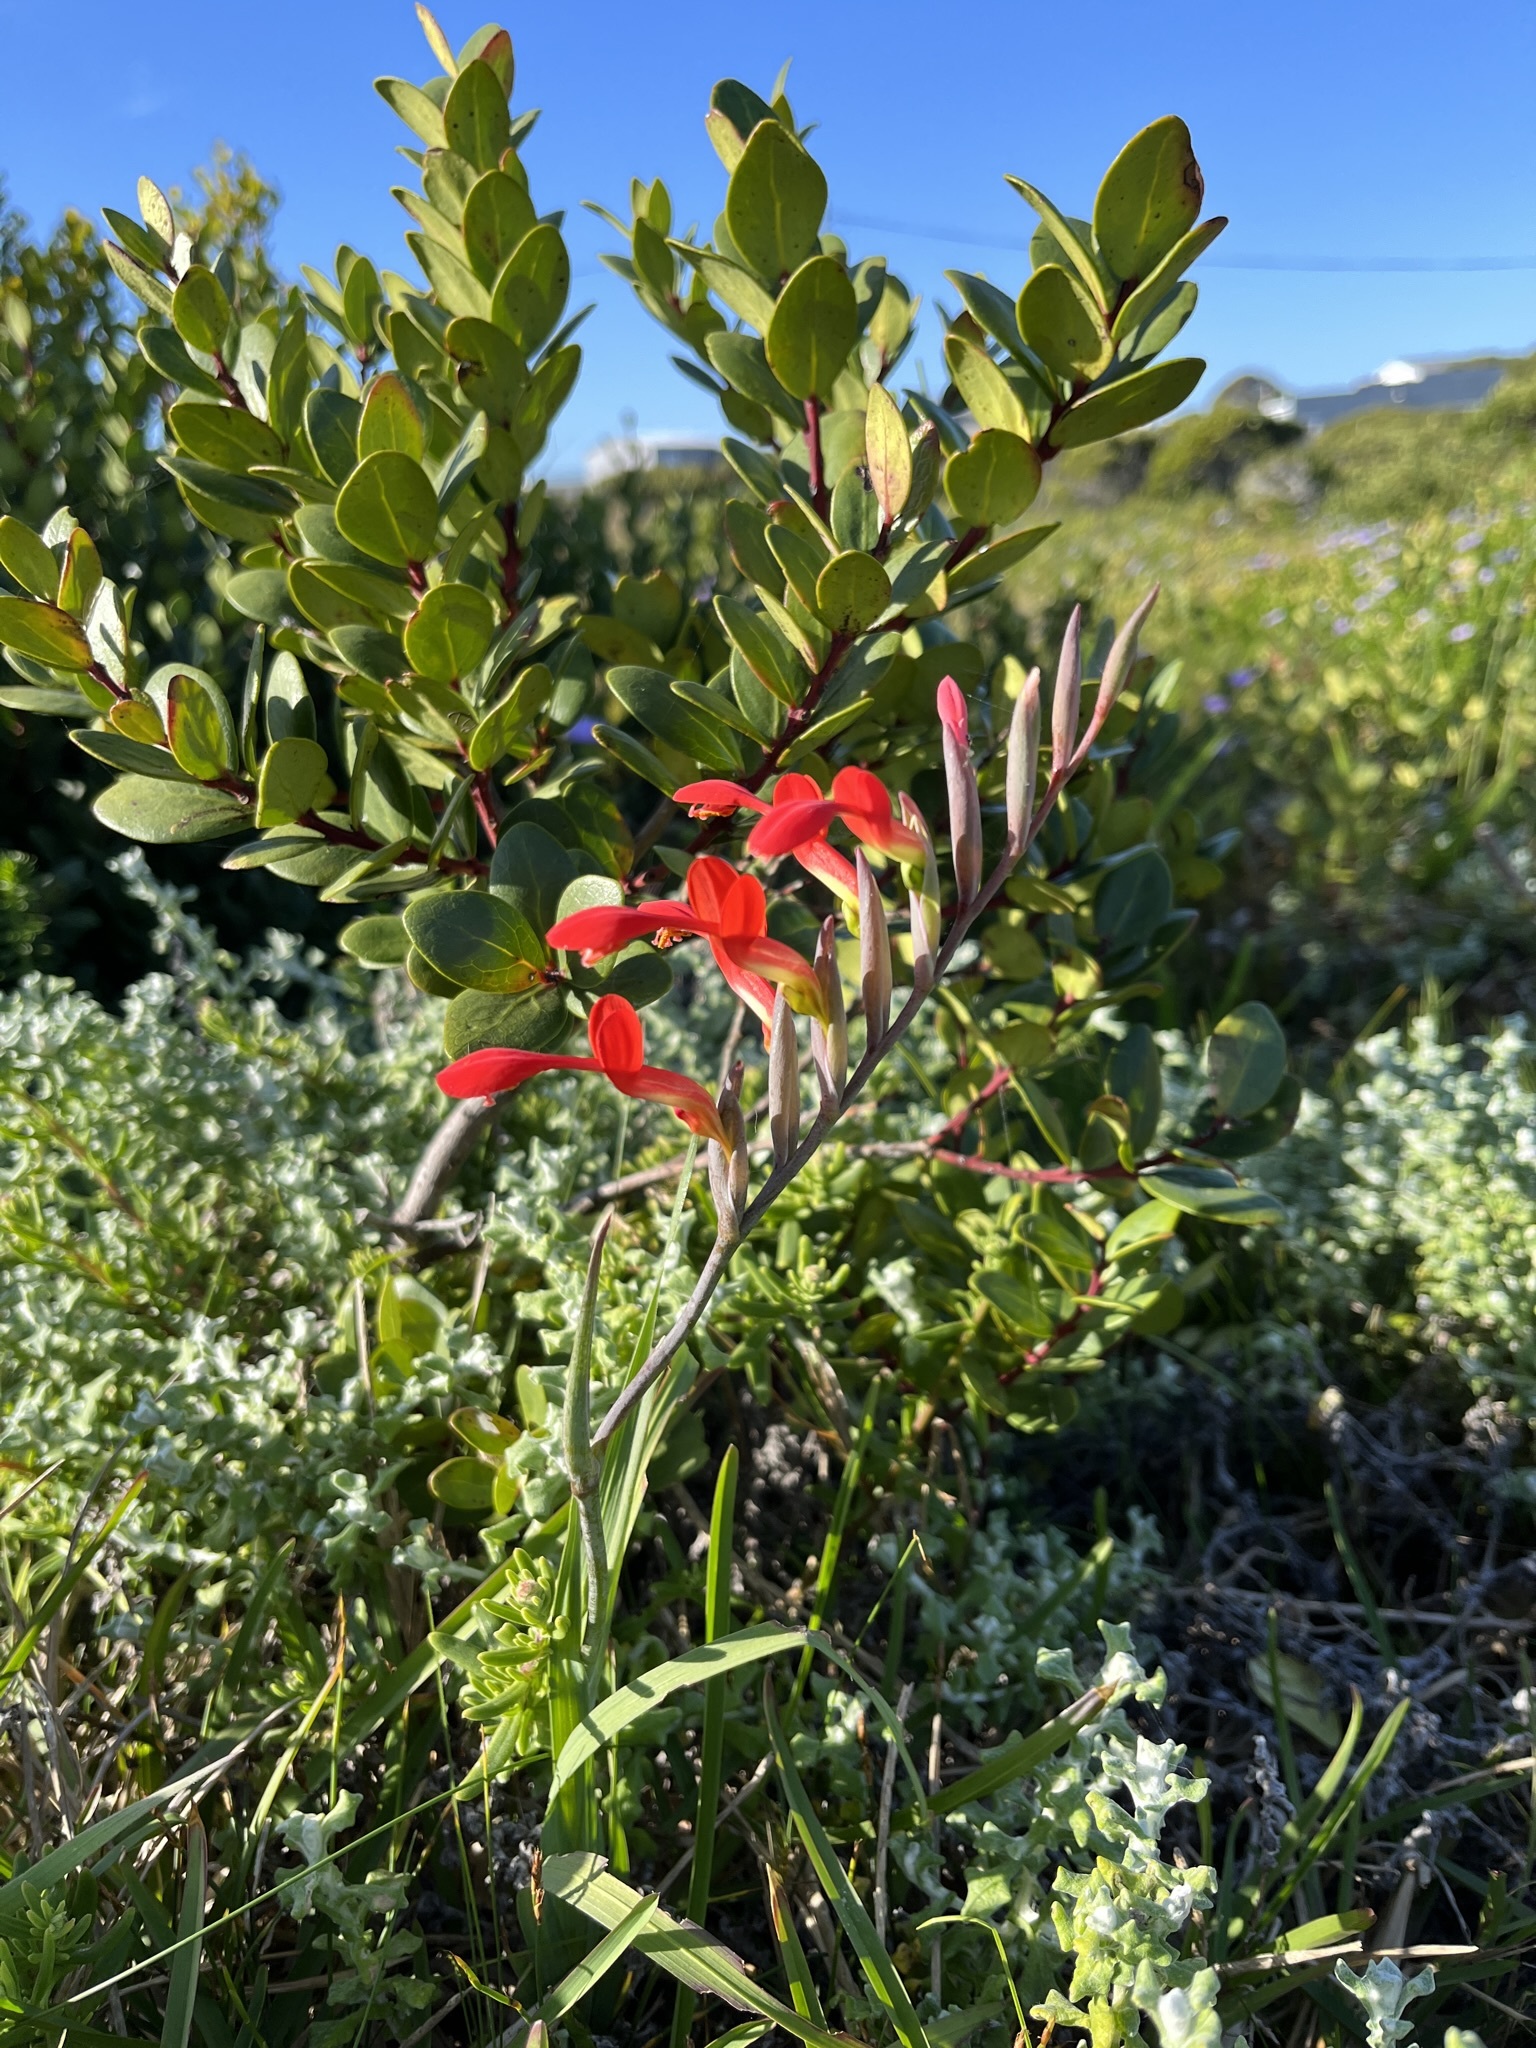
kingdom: Plantae
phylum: Tracheophyta
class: Liliopsida
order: Asparagales
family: Iridaceae
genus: Gladiolus
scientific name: Gladiolus cunonius
